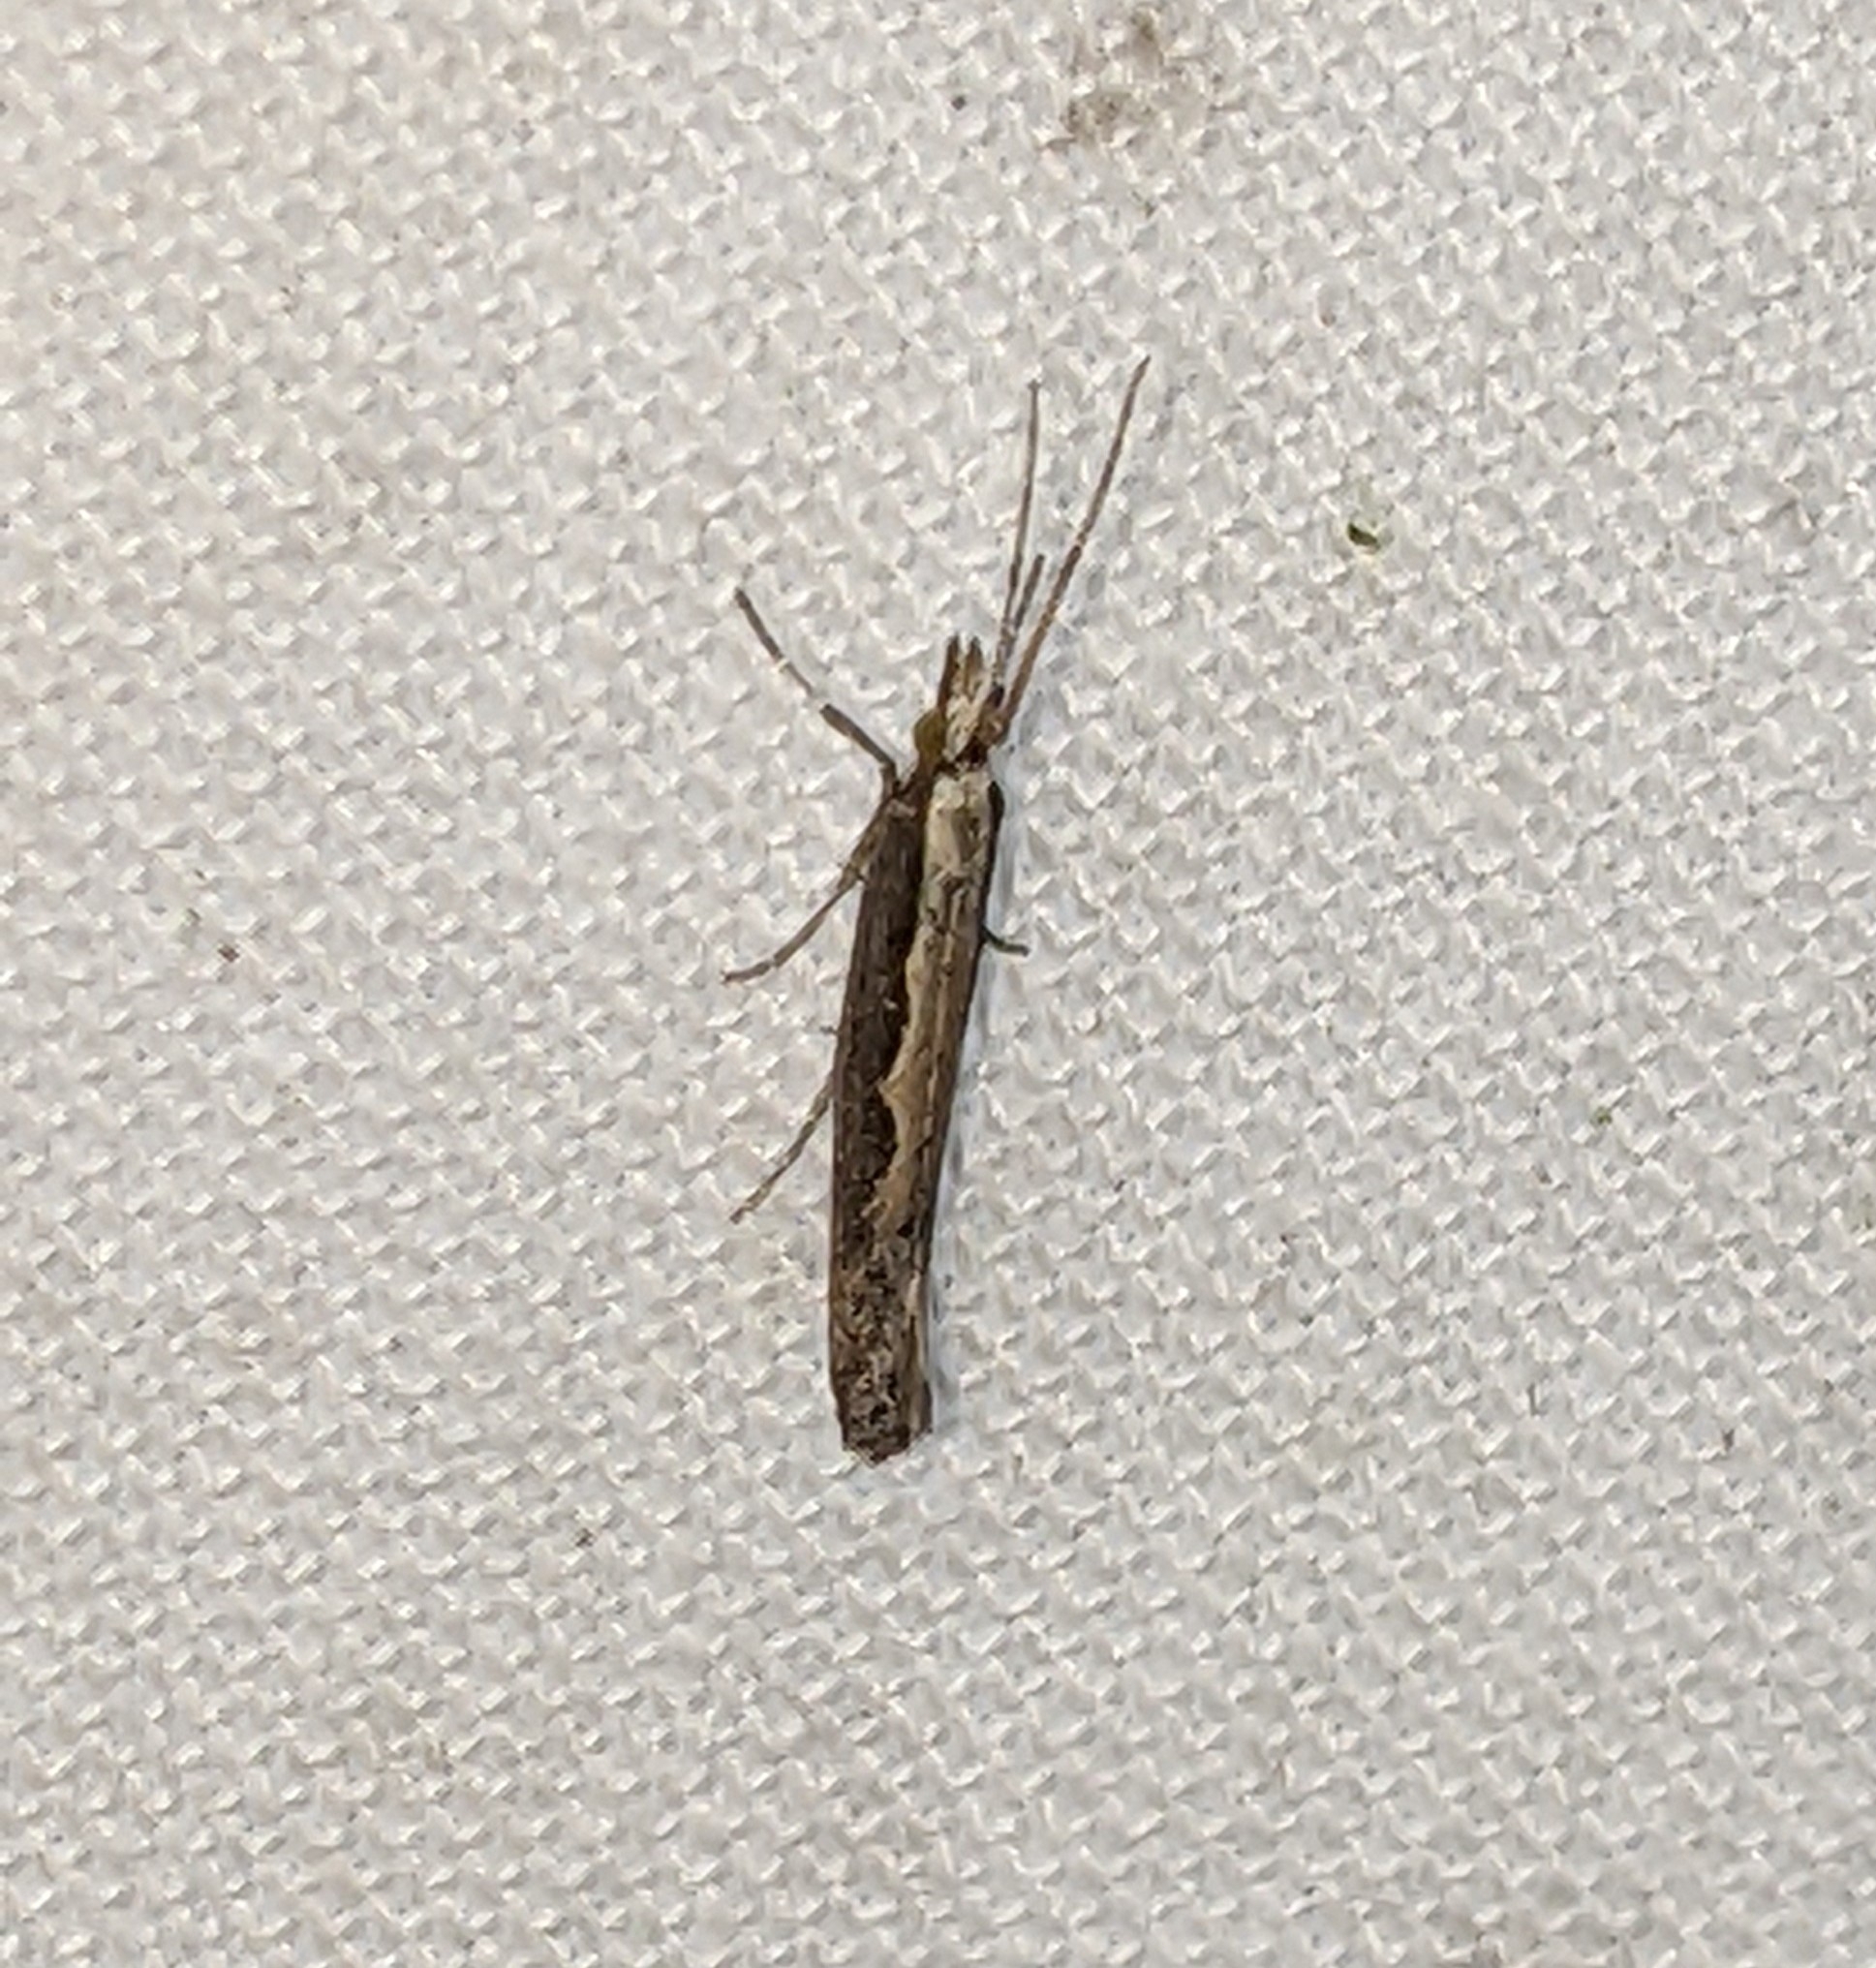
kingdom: Animalia
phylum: Arthropoda
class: Insecta
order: Lepidoptera
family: Plutellidae
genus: Plutella
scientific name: Plutella xylostella
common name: Diamond-back moth
